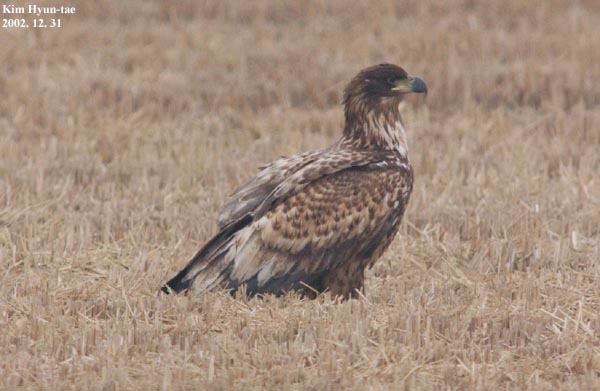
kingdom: Animalia
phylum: Chordata
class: Aves
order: Accipitriformes
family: Accipitridae
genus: Haliaeetus
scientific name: Haliaeetus albicilla
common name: White-tailed eagle
